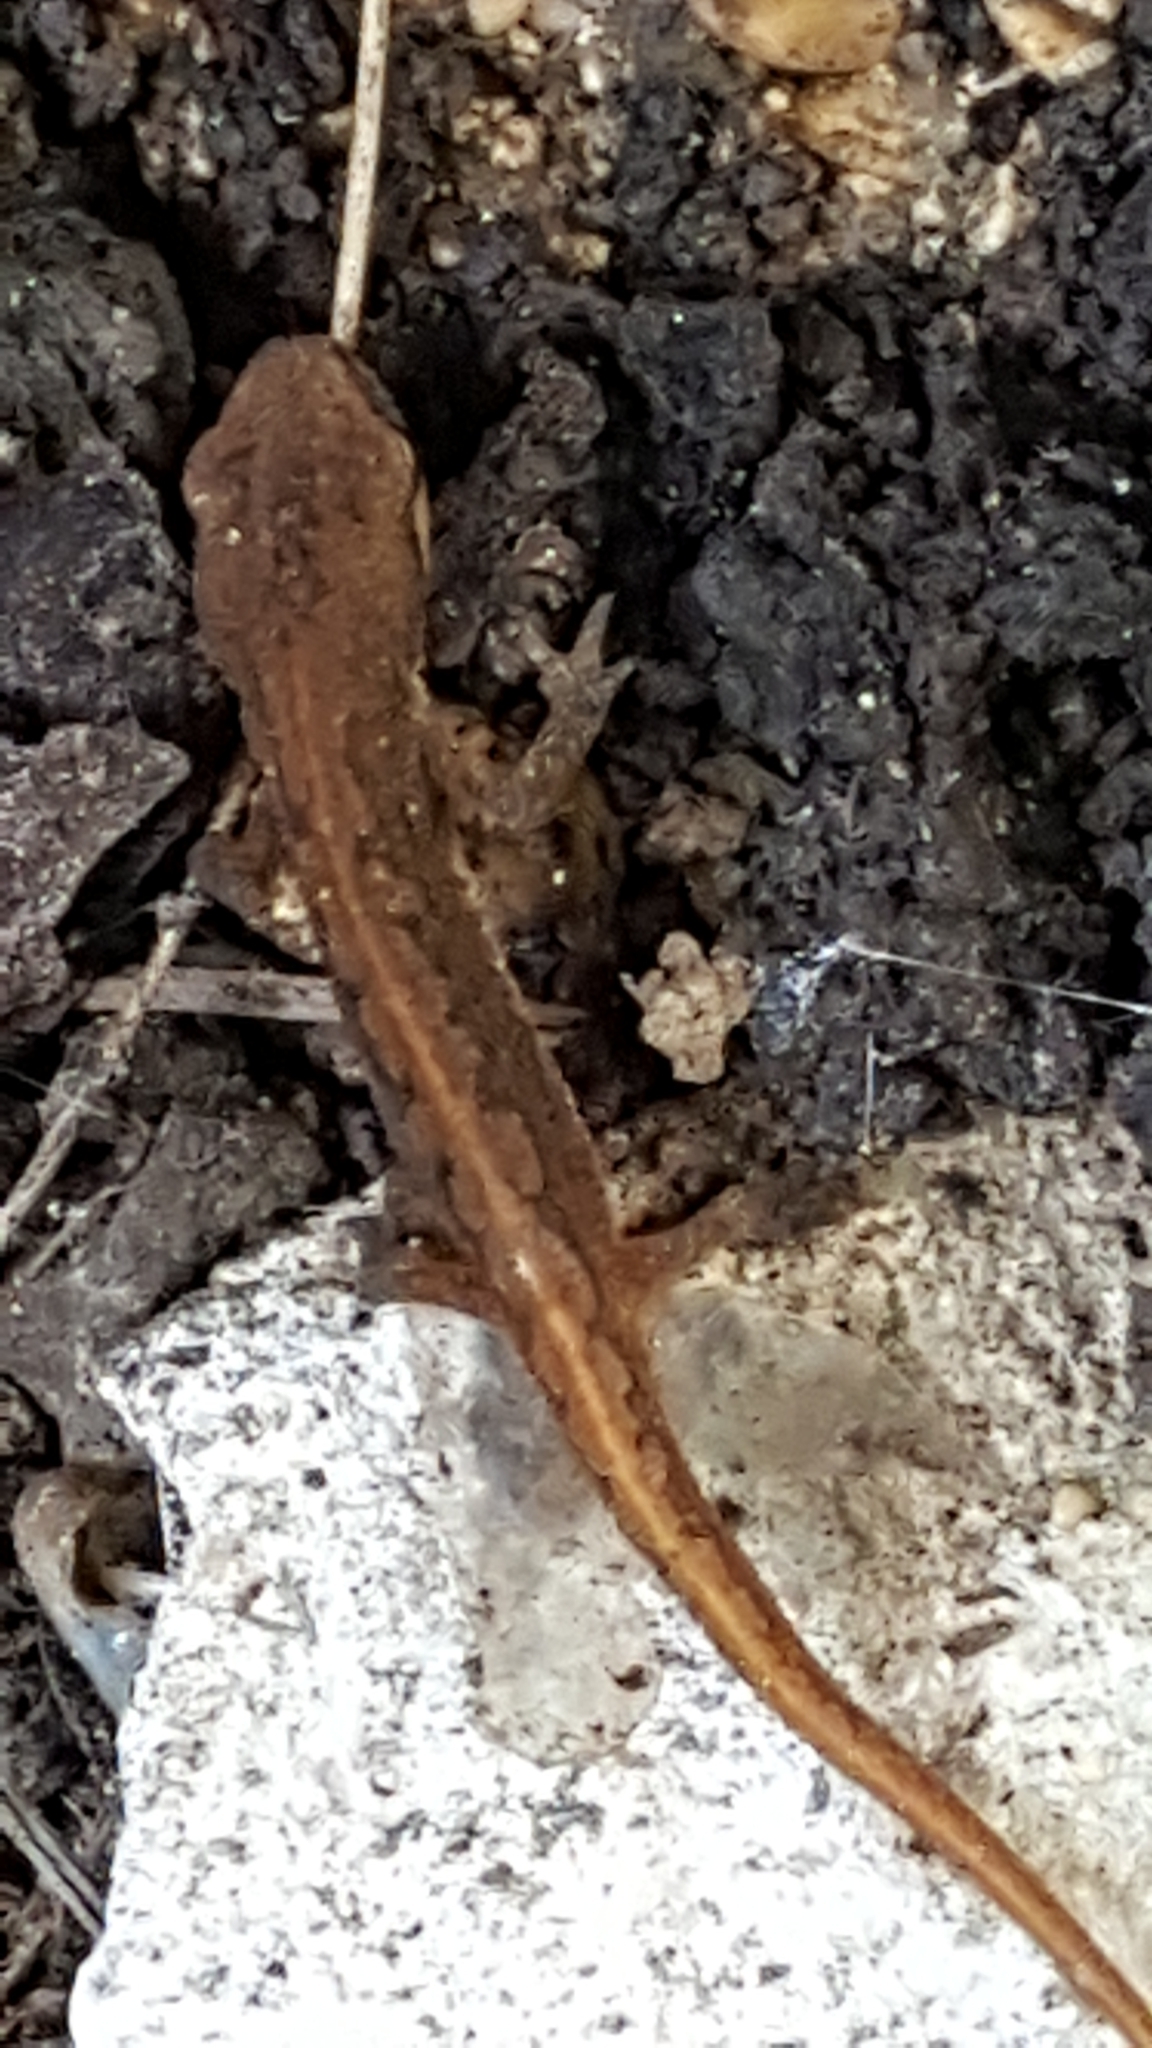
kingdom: Animalia
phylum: Chordata
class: Amphibia
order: Caudata
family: Salamandridae
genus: Lissotriton
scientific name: Lissotriton
